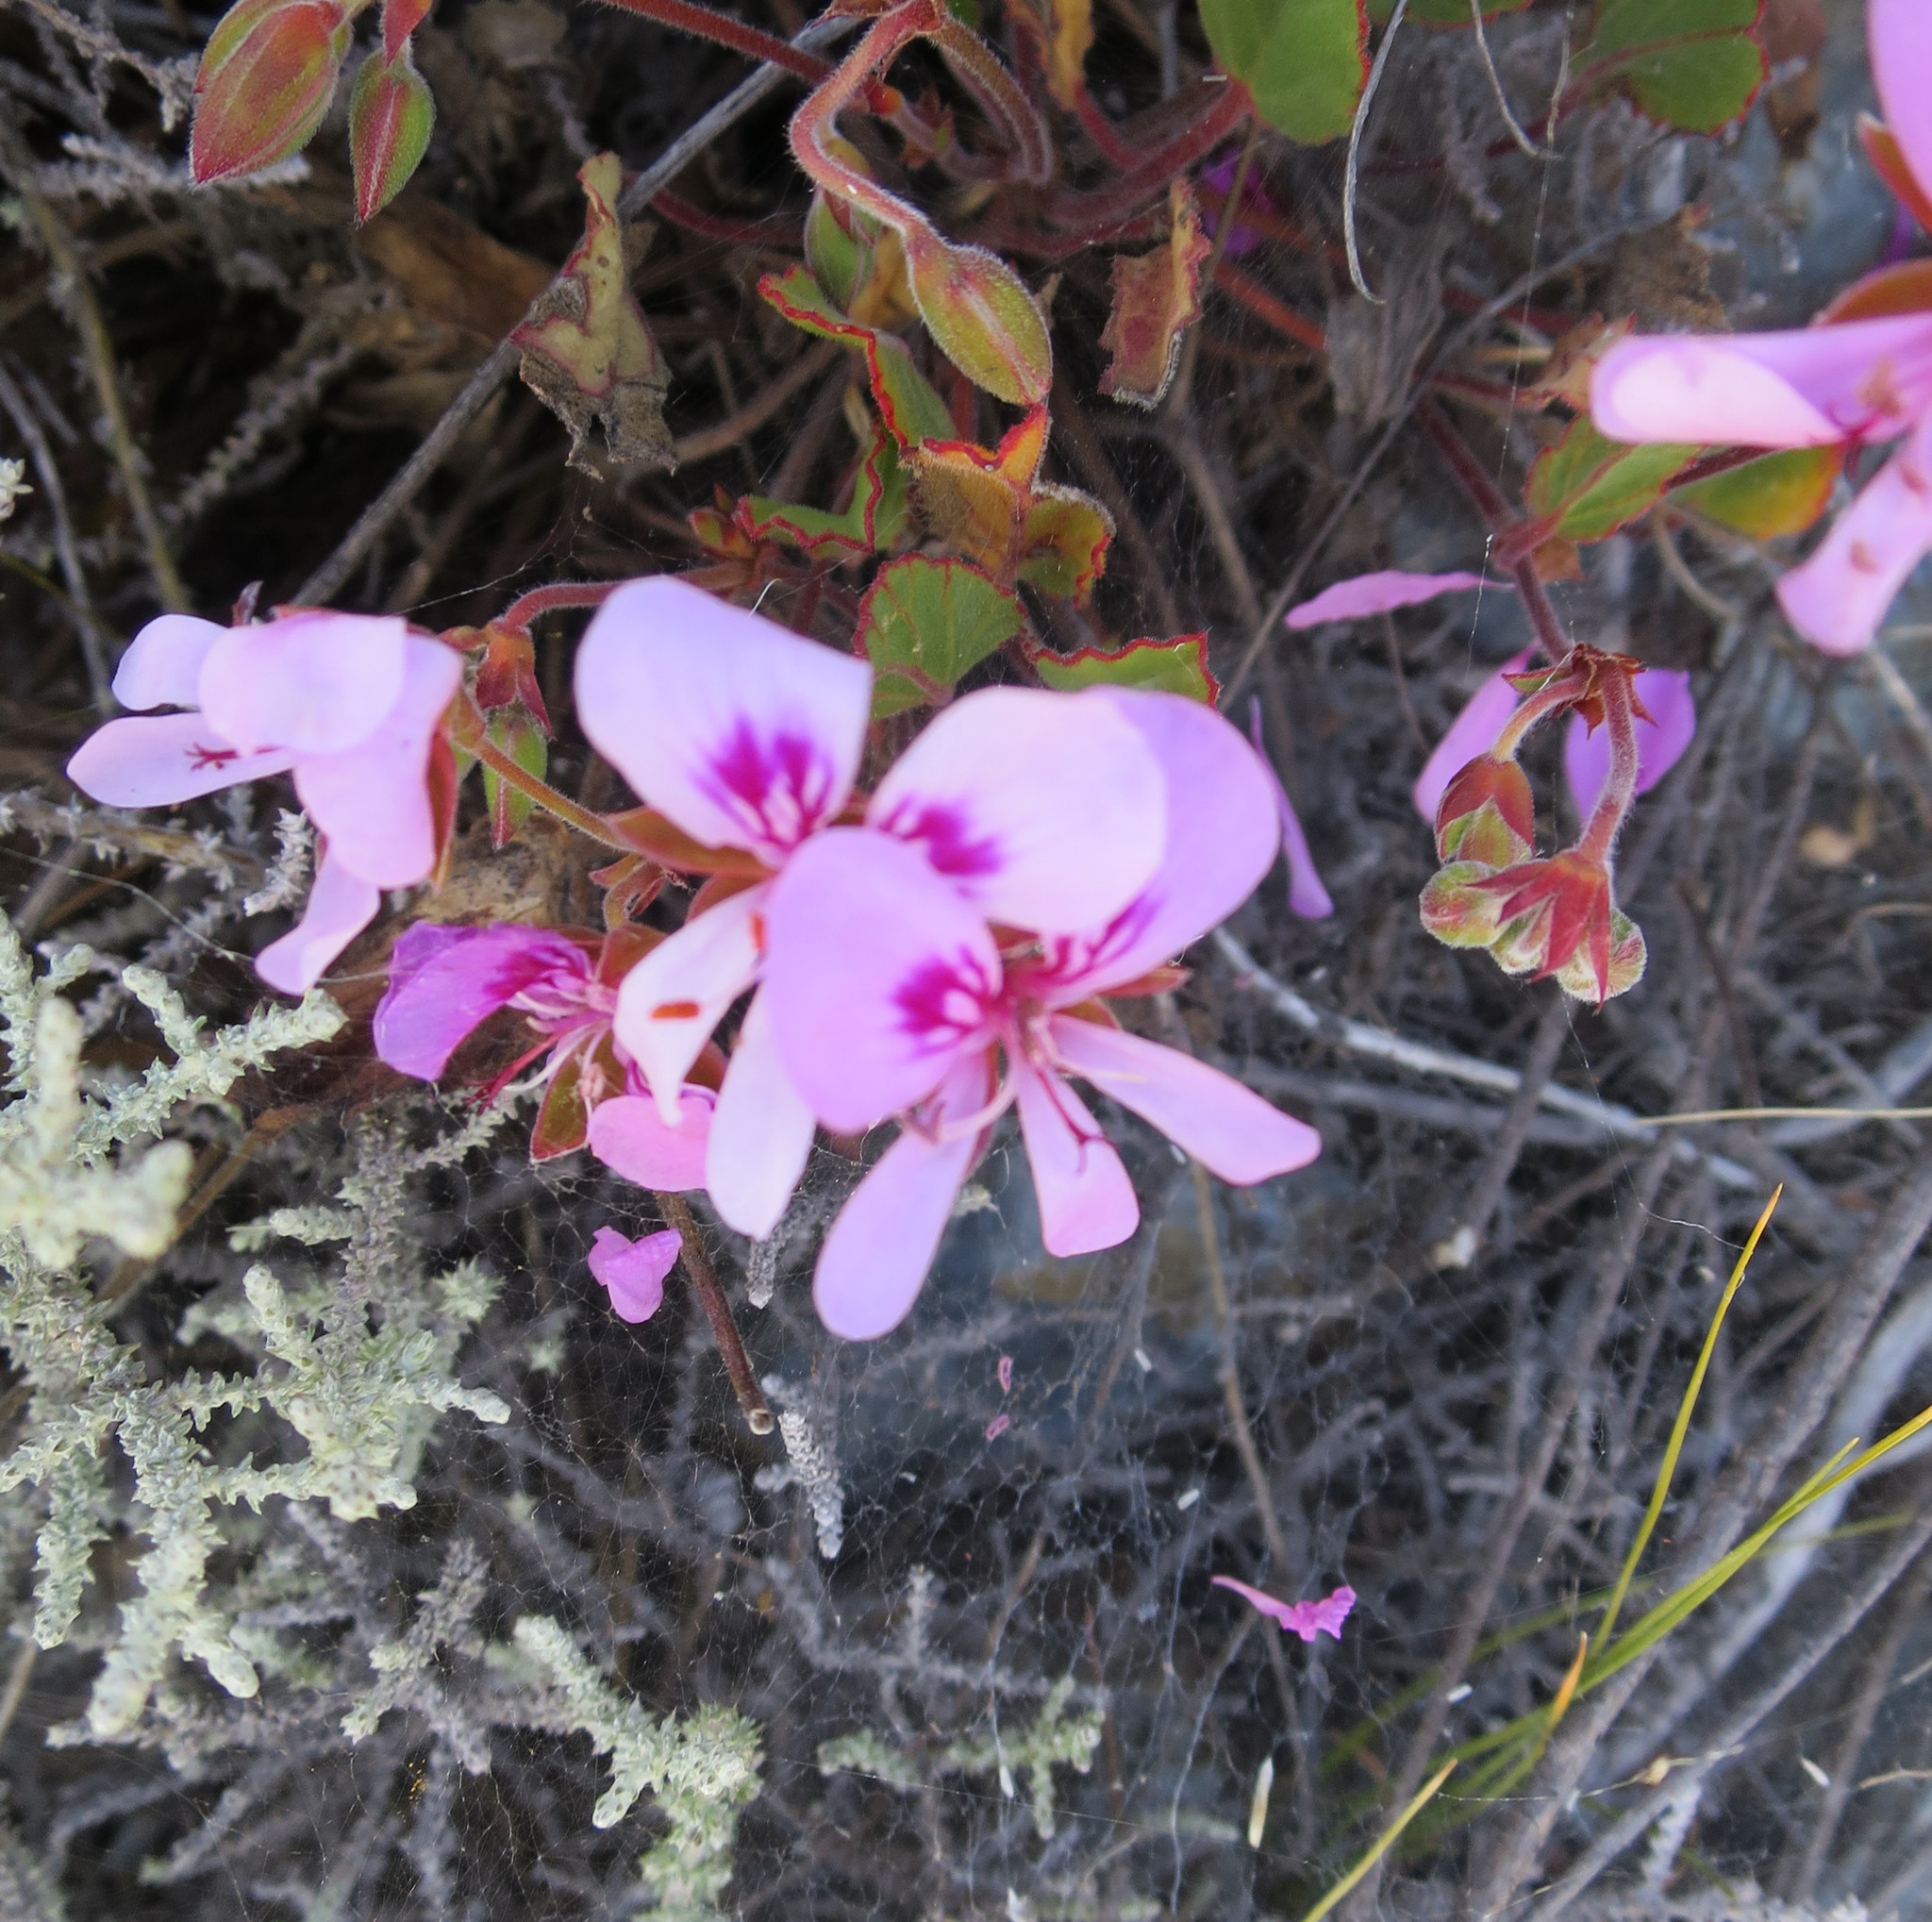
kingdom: Plantae
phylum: Tracheophyta
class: Magnoliopsida
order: Geraniales
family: Geraniaceae
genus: Pelargonium
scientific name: Pelargonium ovale
